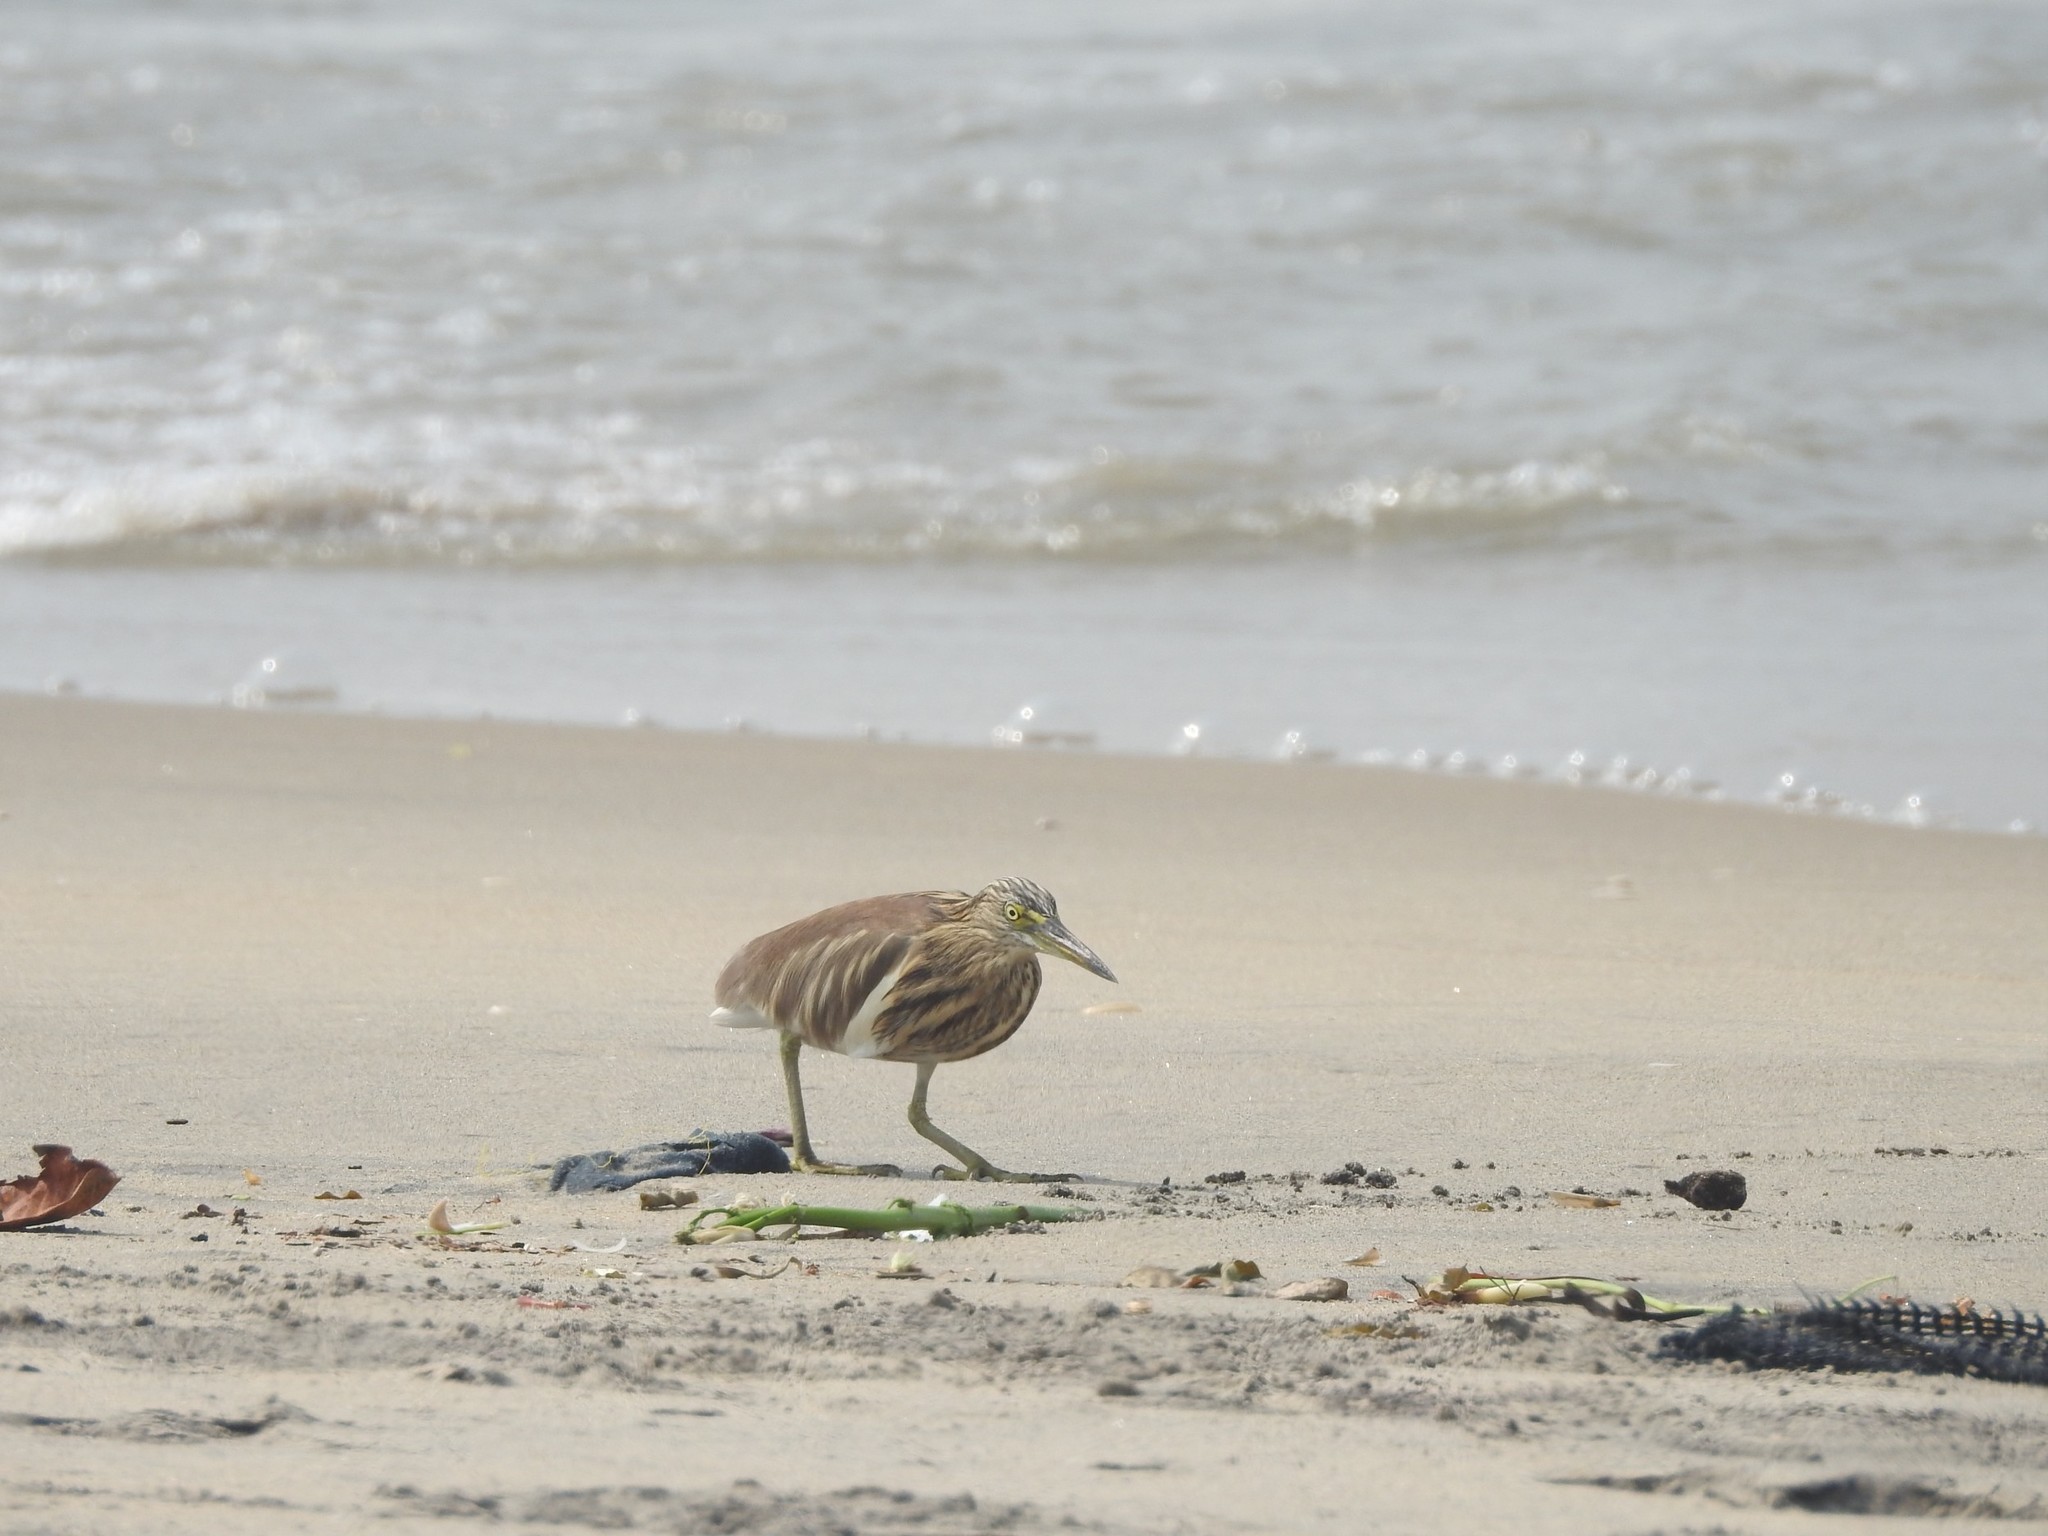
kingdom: Animalia
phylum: Chordata
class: Aves
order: Pelecaniformes
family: Ardeidae
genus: Ardeola
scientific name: Ardeola grayii
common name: Indian pond heron
